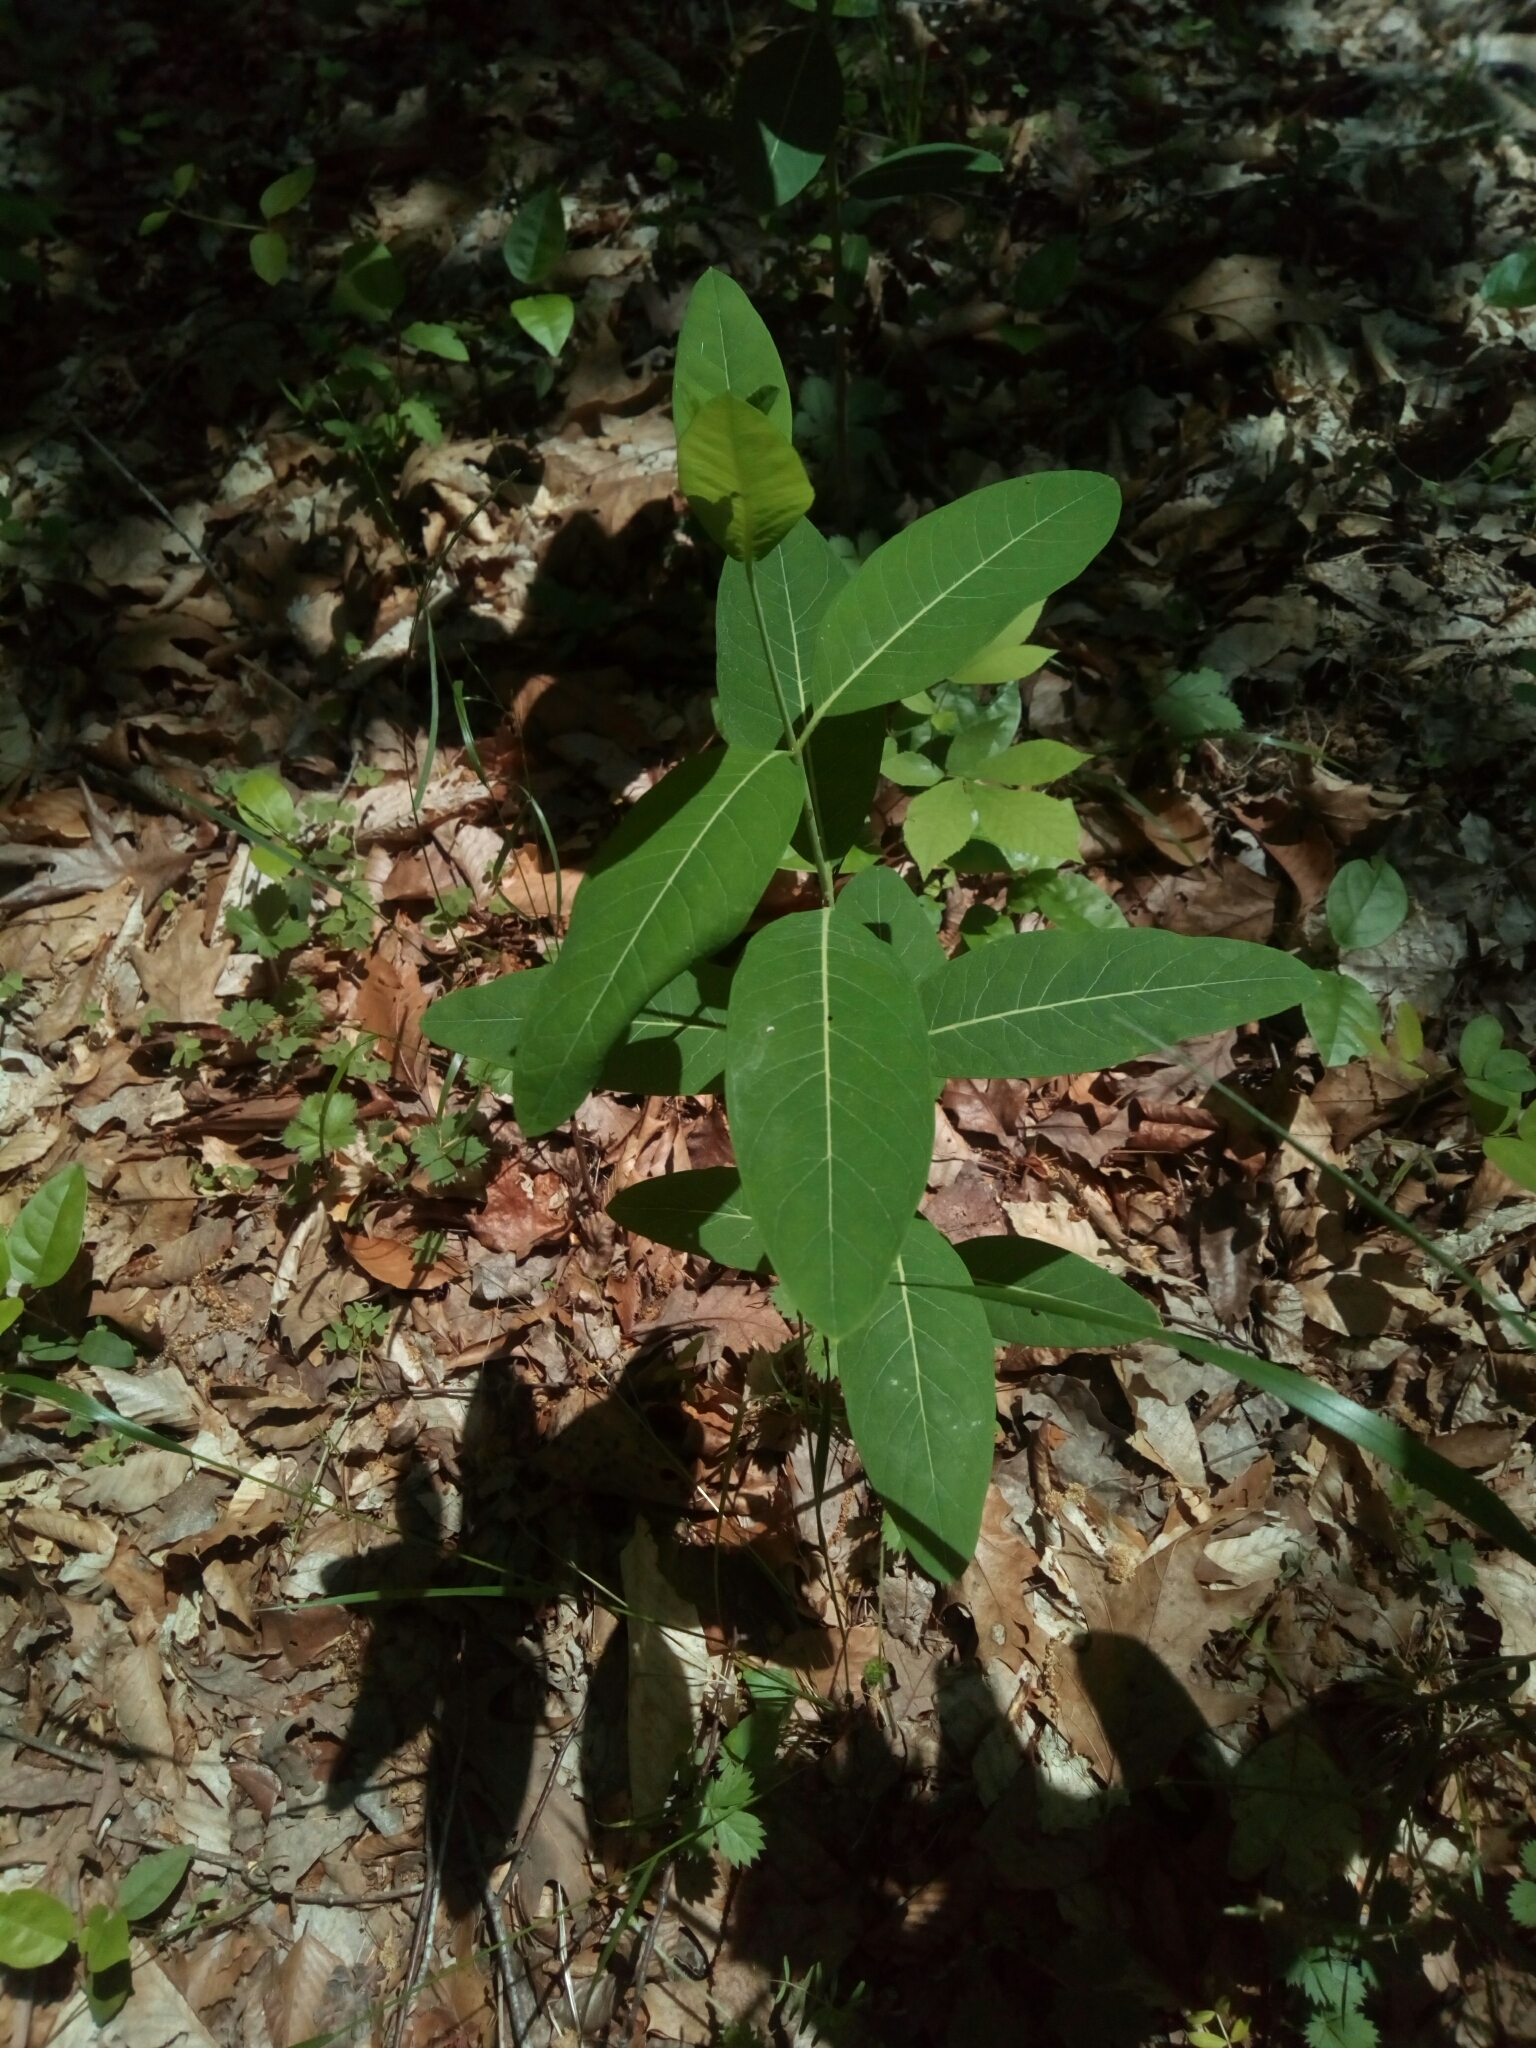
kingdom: Plantae
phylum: Tracheophyta
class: Magnoliopsida
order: Gentianales
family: Apocynaceae
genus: Apocynum
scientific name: Apocynum cannabinum
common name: Hemp dogbane
